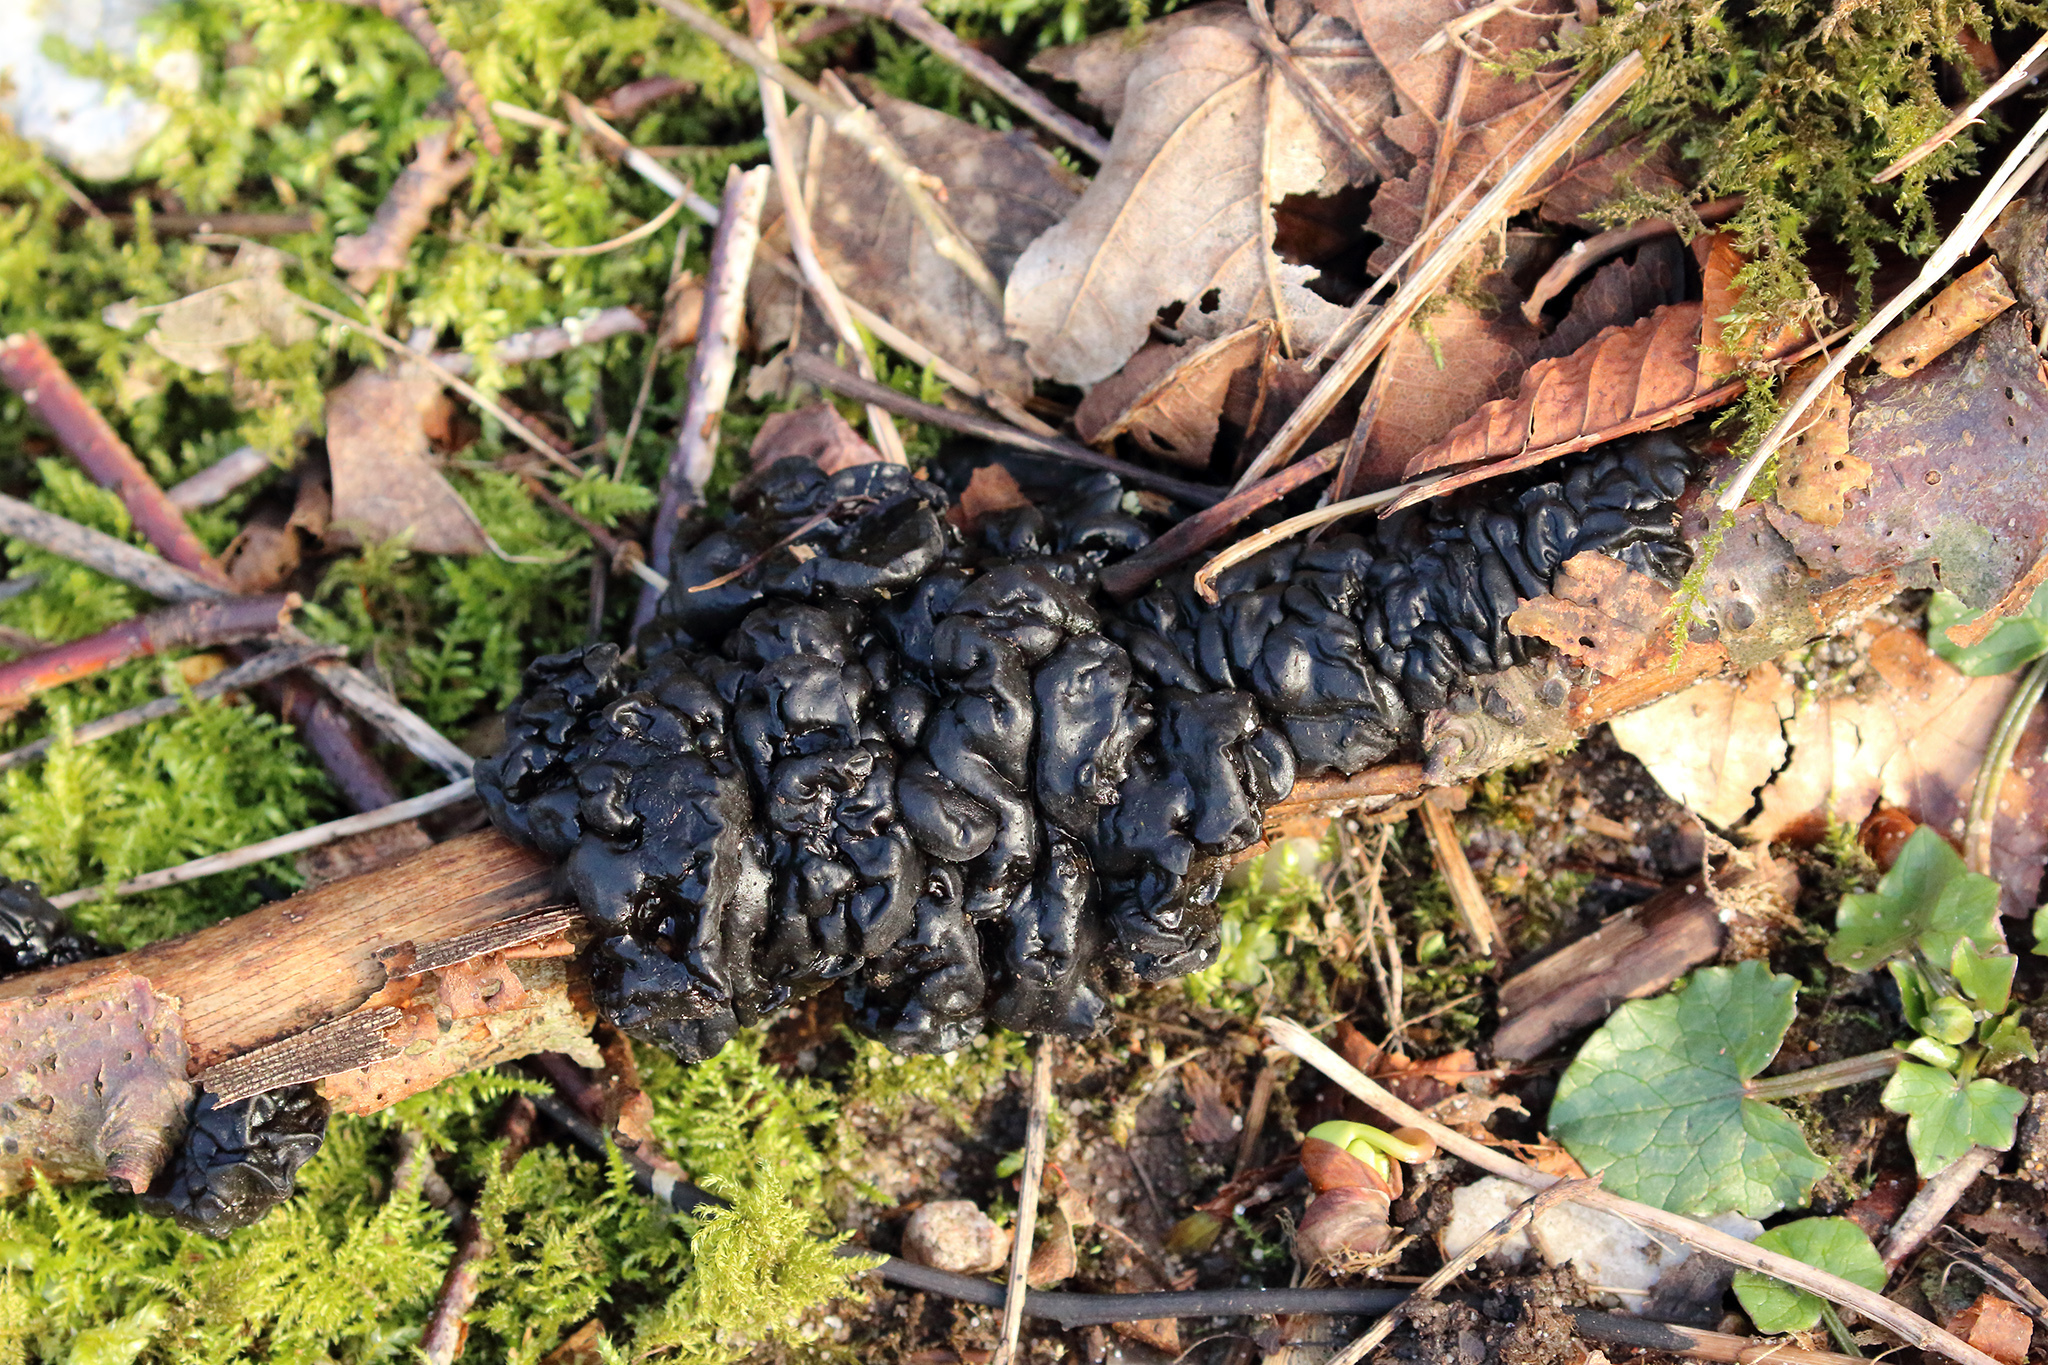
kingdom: Fungi
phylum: Basidiomycota
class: Agaricomycetes
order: Auriculariales
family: Auriculariaceae
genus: Exidia
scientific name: Exidia glandulosa
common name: Witches' butter
